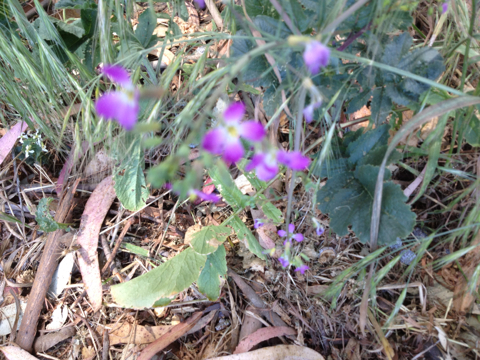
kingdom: Plantae
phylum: Tracheophyta
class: Magnoliopsida
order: Brassicales
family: Brassicaceae
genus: Raphanus
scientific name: Raphanus sativus
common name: Cultivated radish
